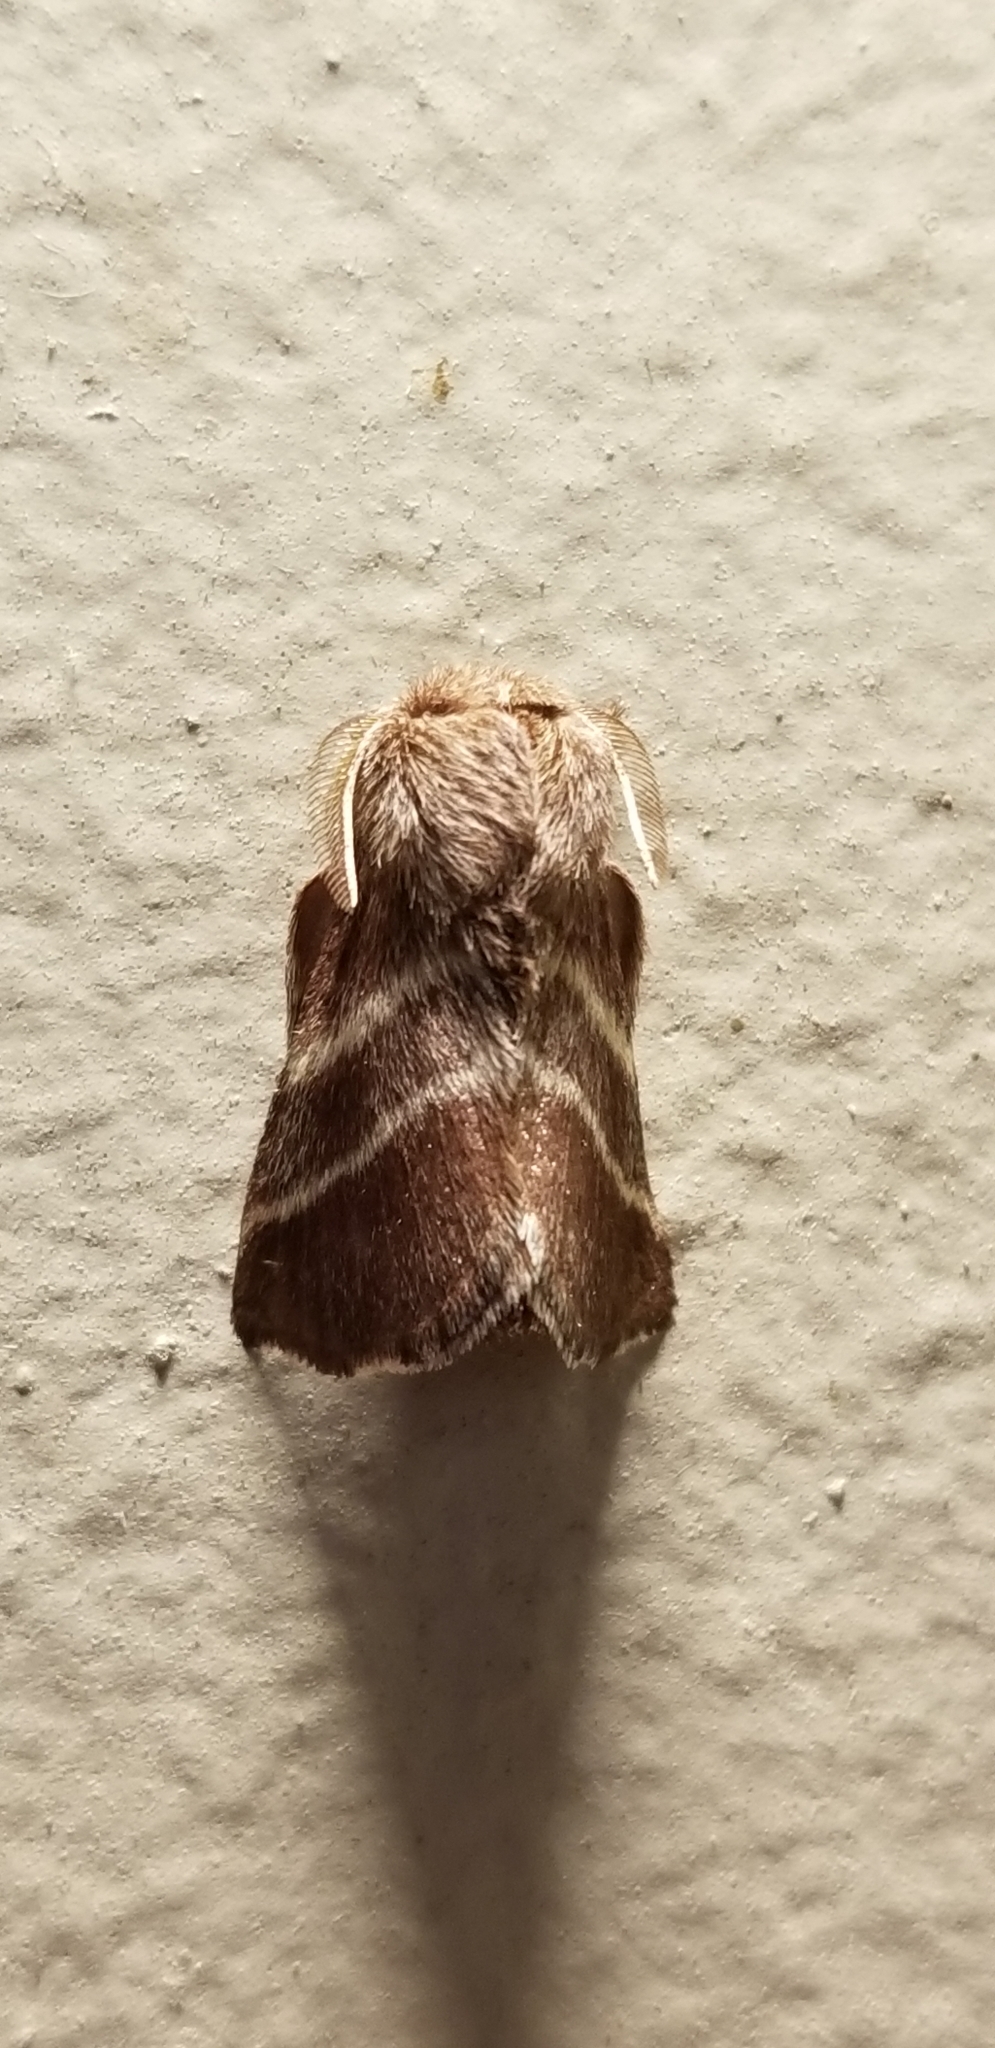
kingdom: Animalia
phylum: Arthropoda
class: Insecta
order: Lepidoptera
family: Lasiocampidae
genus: Malacosoma
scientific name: Malacosoma americana
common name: Eastern tent caterpillar moth
